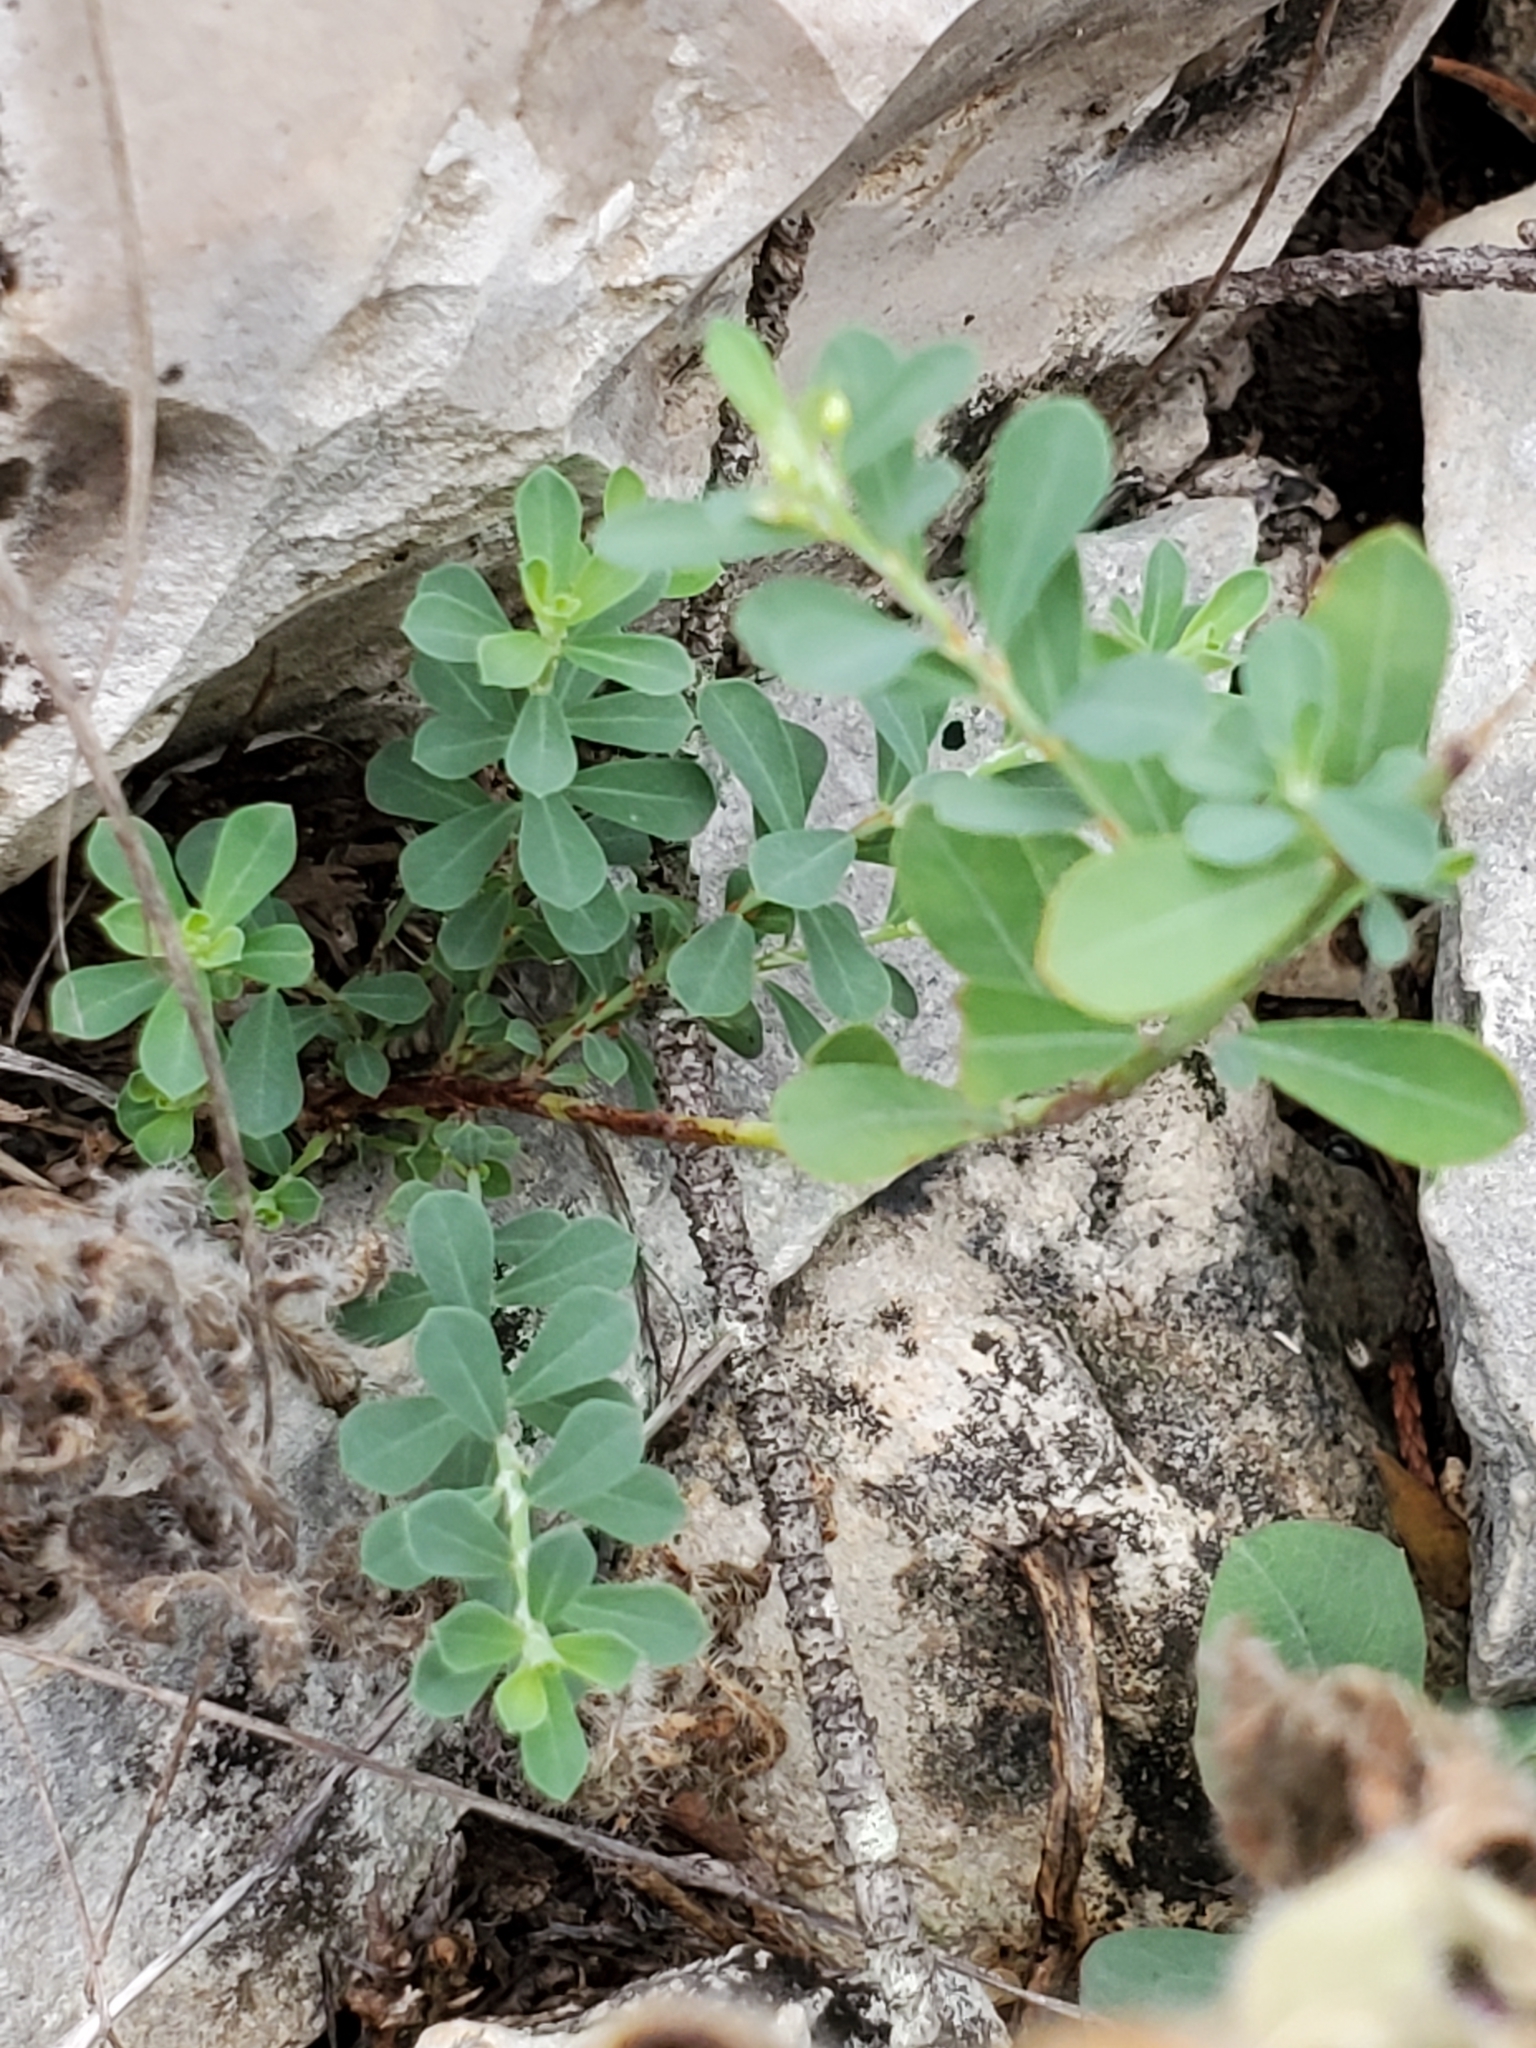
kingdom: Plantae
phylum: Tracheophyta
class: Magnoliopsida
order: Malpighiales
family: Phyllanthaceae
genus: Phyllanthus
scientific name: Phyllanthus polygonoides
